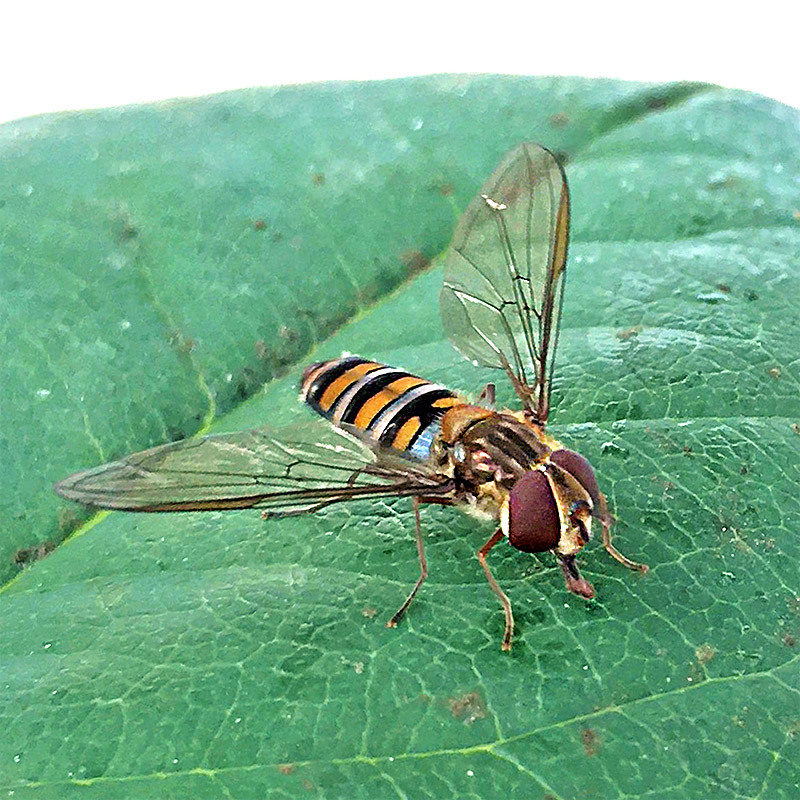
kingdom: Animalia
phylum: Arthropoda
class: Insecta
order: Diptera
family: Syrphidae
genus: Episyrphus
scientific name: Episyrphus balteatus
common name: Marmalade hoverfly
